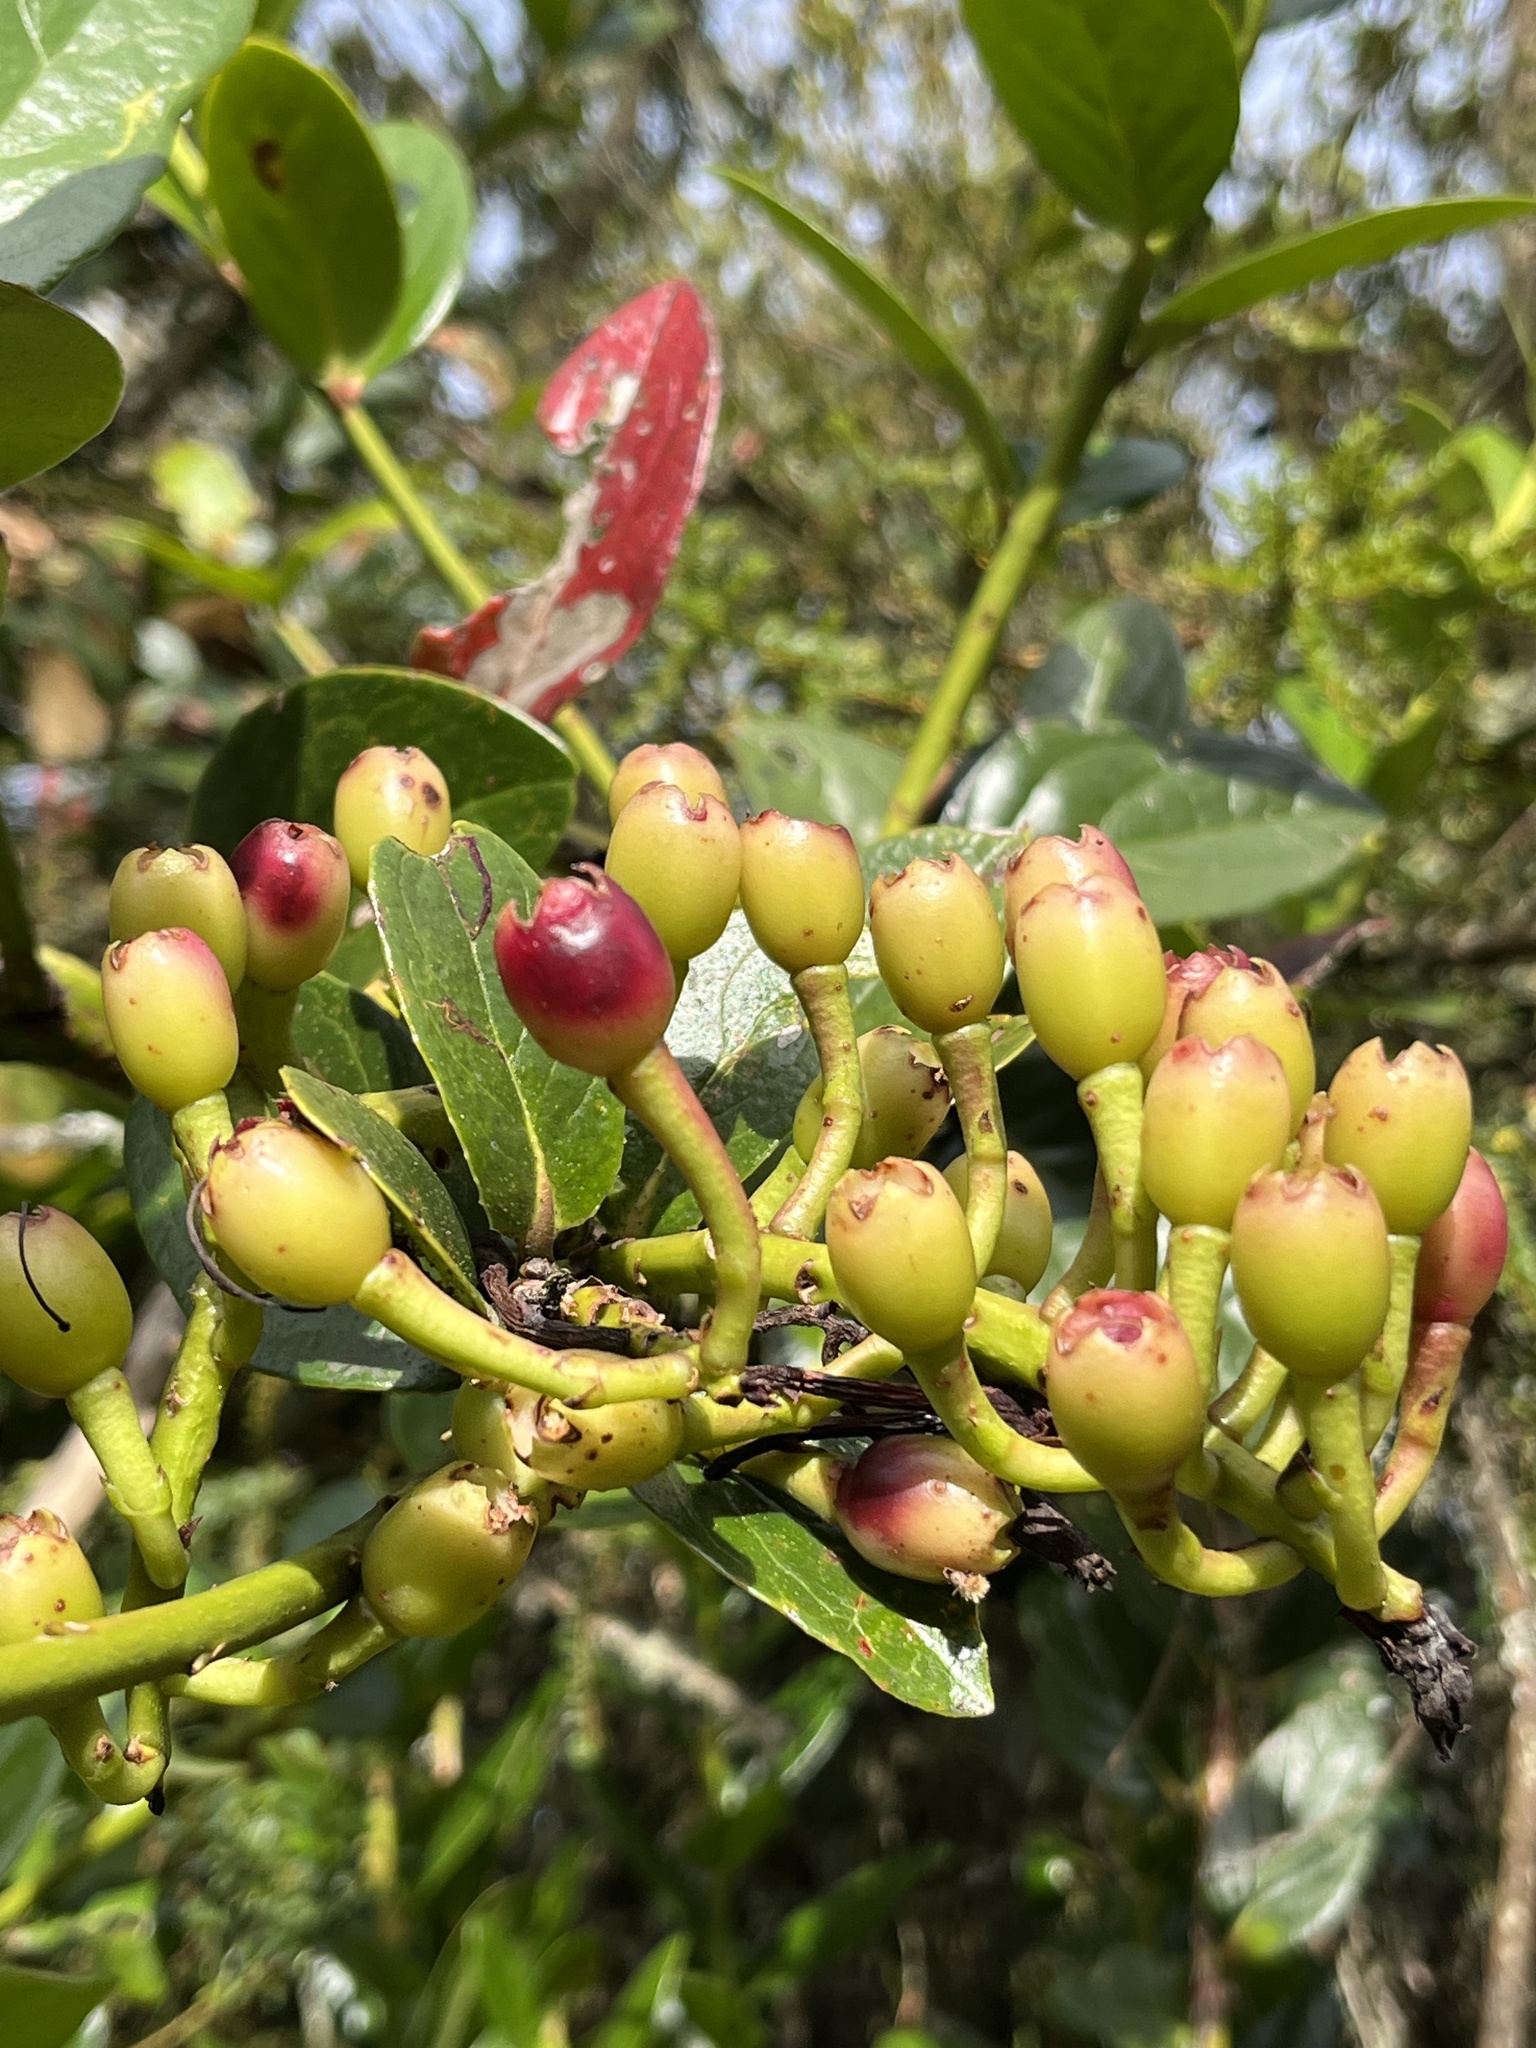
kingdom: Plantae
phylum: Tracheophyta
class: Magnoliopsida
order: Ericales
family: Ericaceae
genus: Macleania
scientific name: Macleania rupestris
